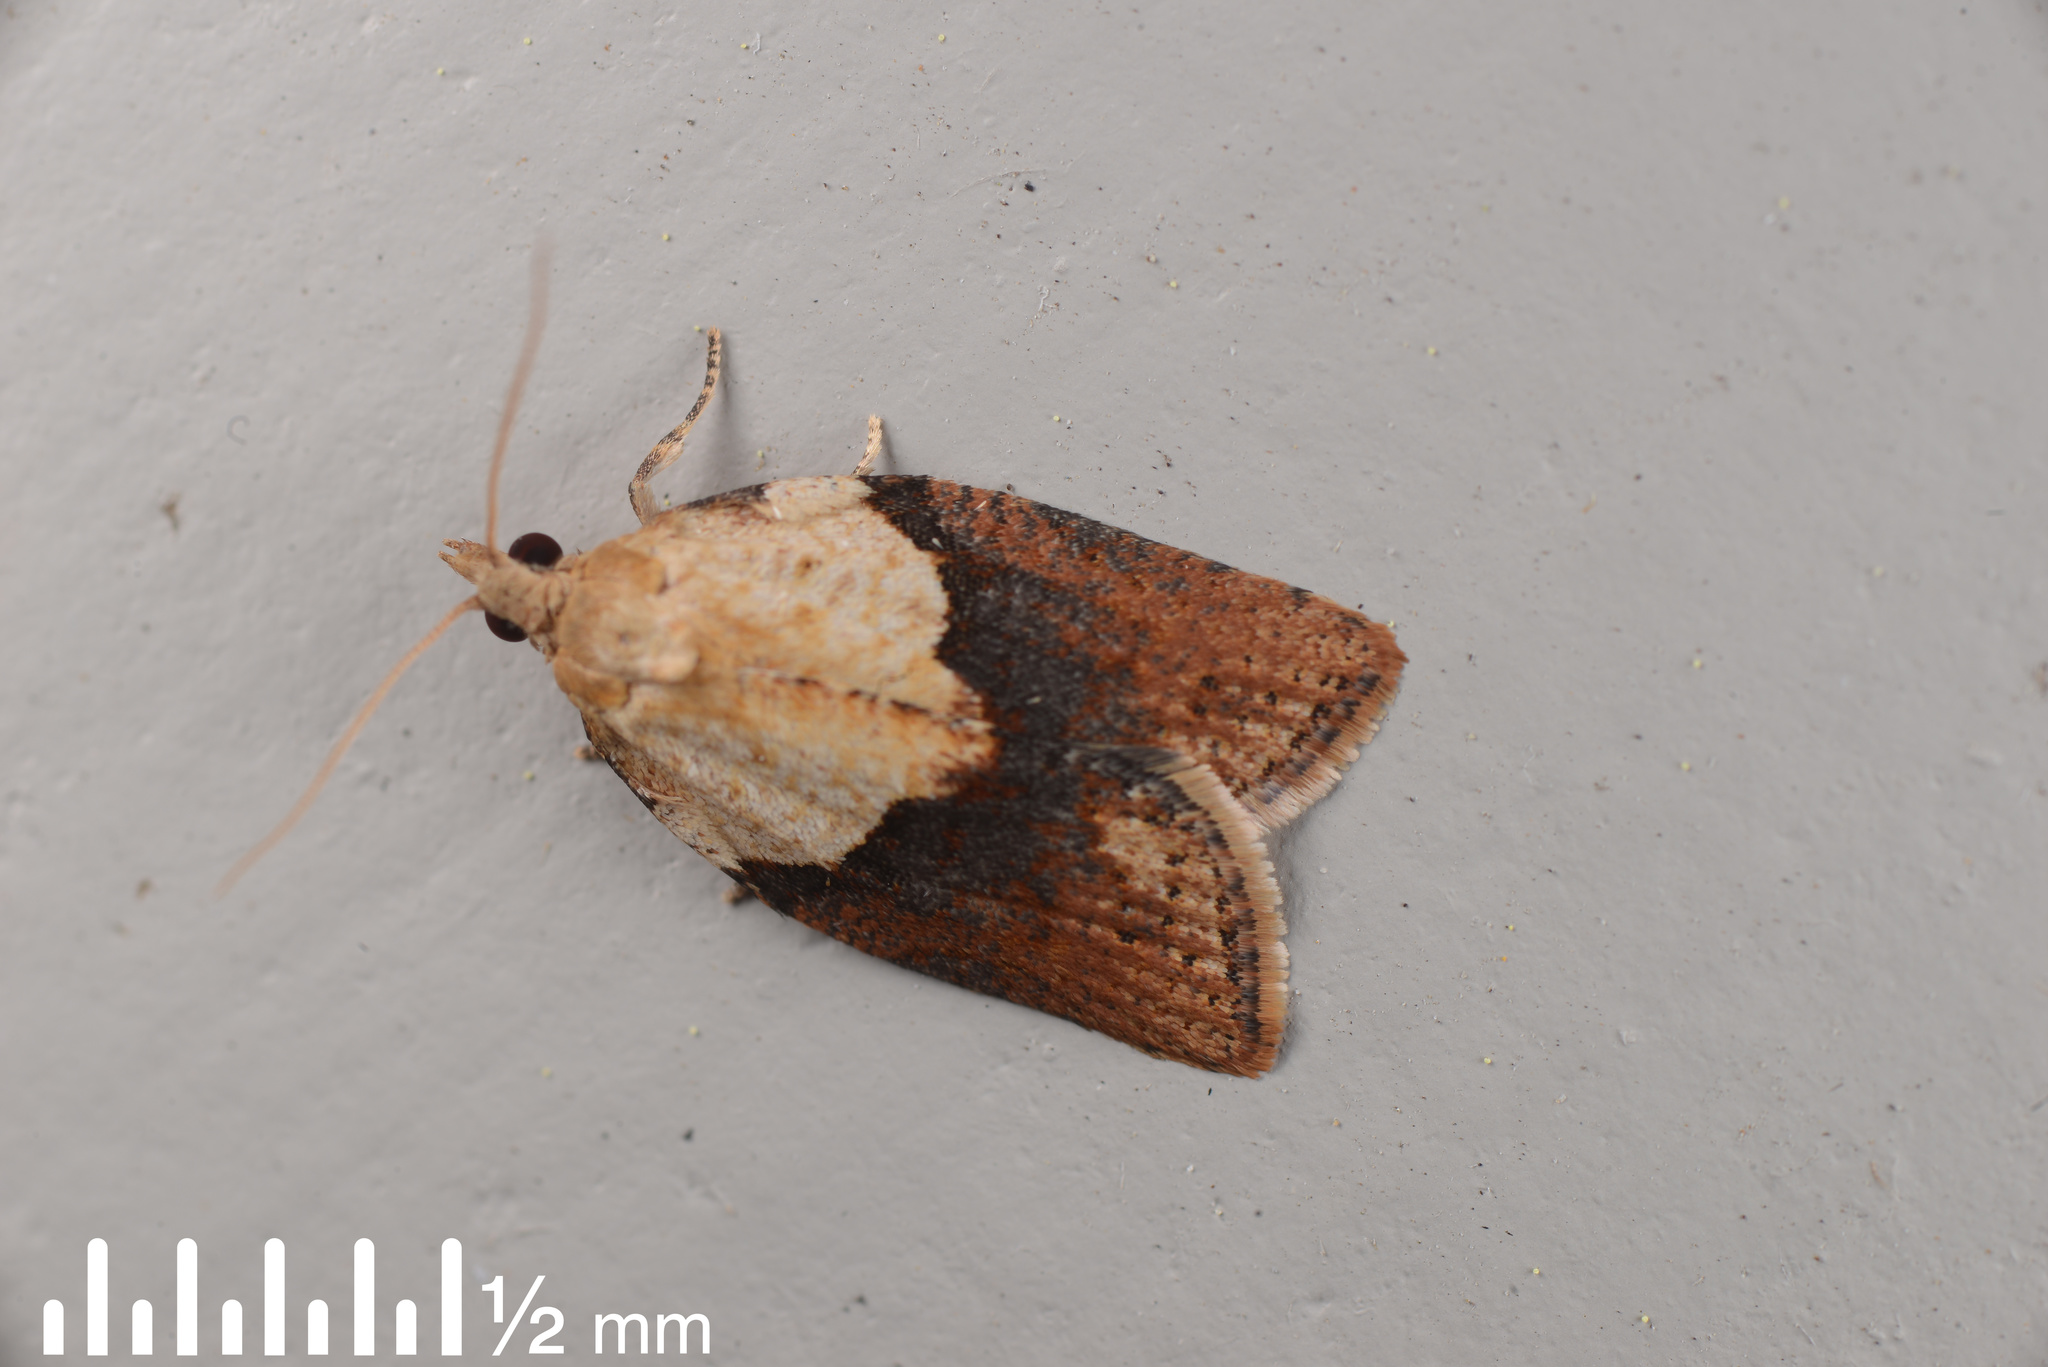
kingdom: Animalia
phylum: Arthropoda
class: Insecta
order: Lepidoptera
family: Tortricidae
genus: Epiphyas
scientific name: Epiphyas postvittana
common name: Light brown apple moth
